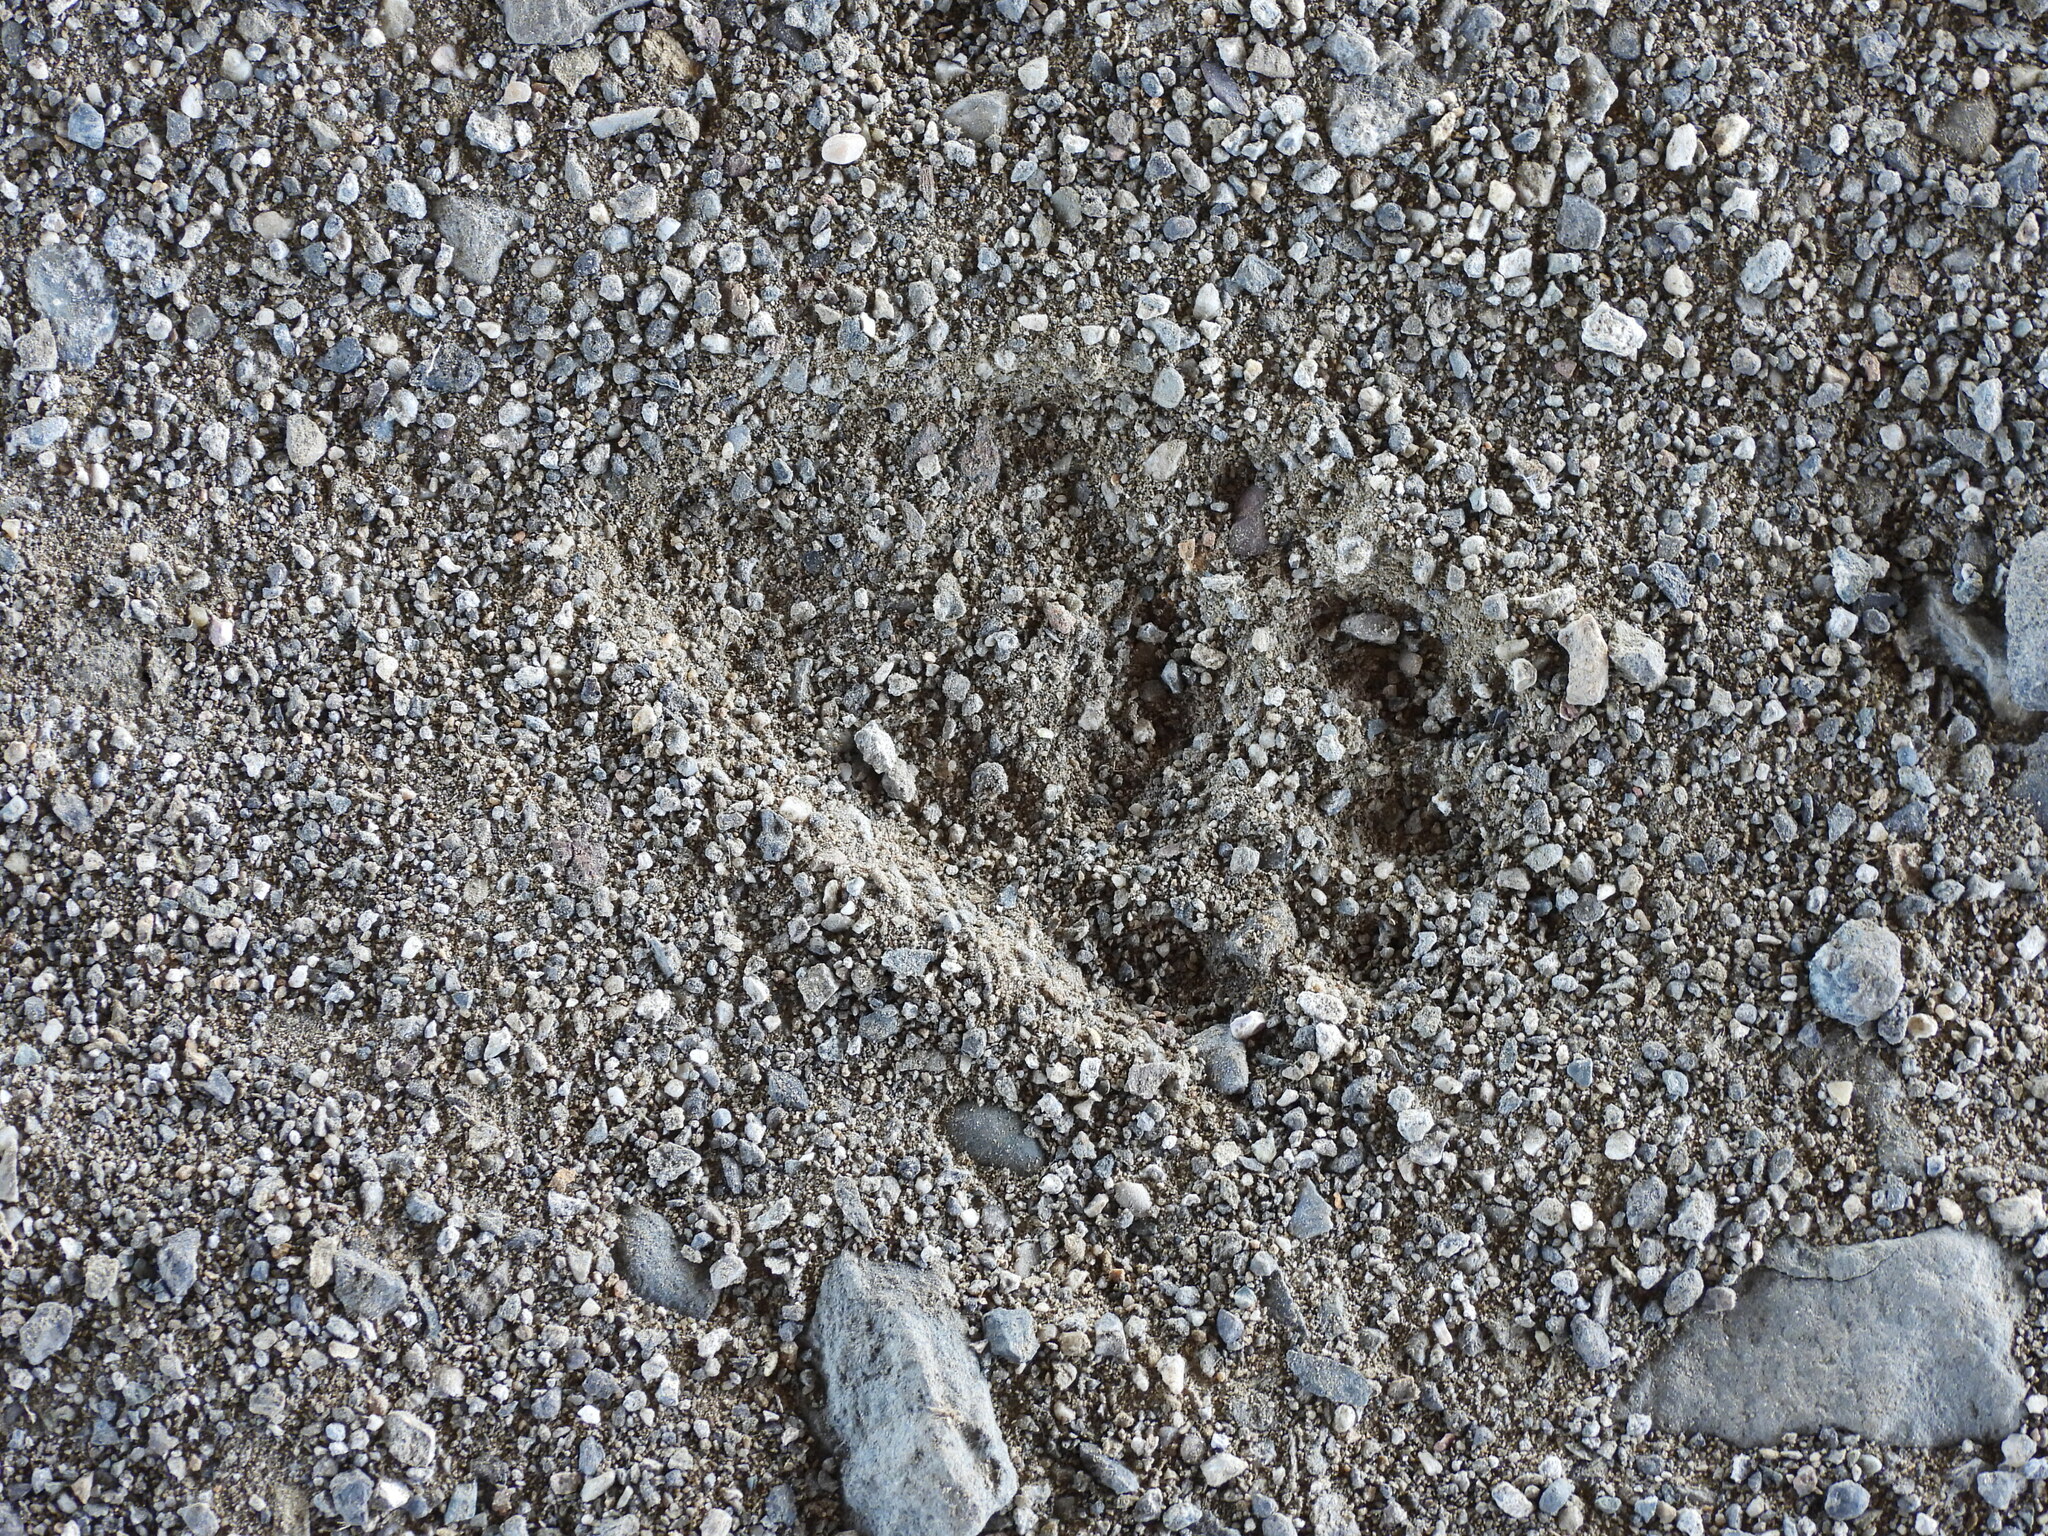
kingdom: Animalia
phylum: Chordata
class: Mammalia
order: Carnivora
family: Procyonidae
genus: Procyon
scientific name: Procyon lotor
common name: Raccoon
